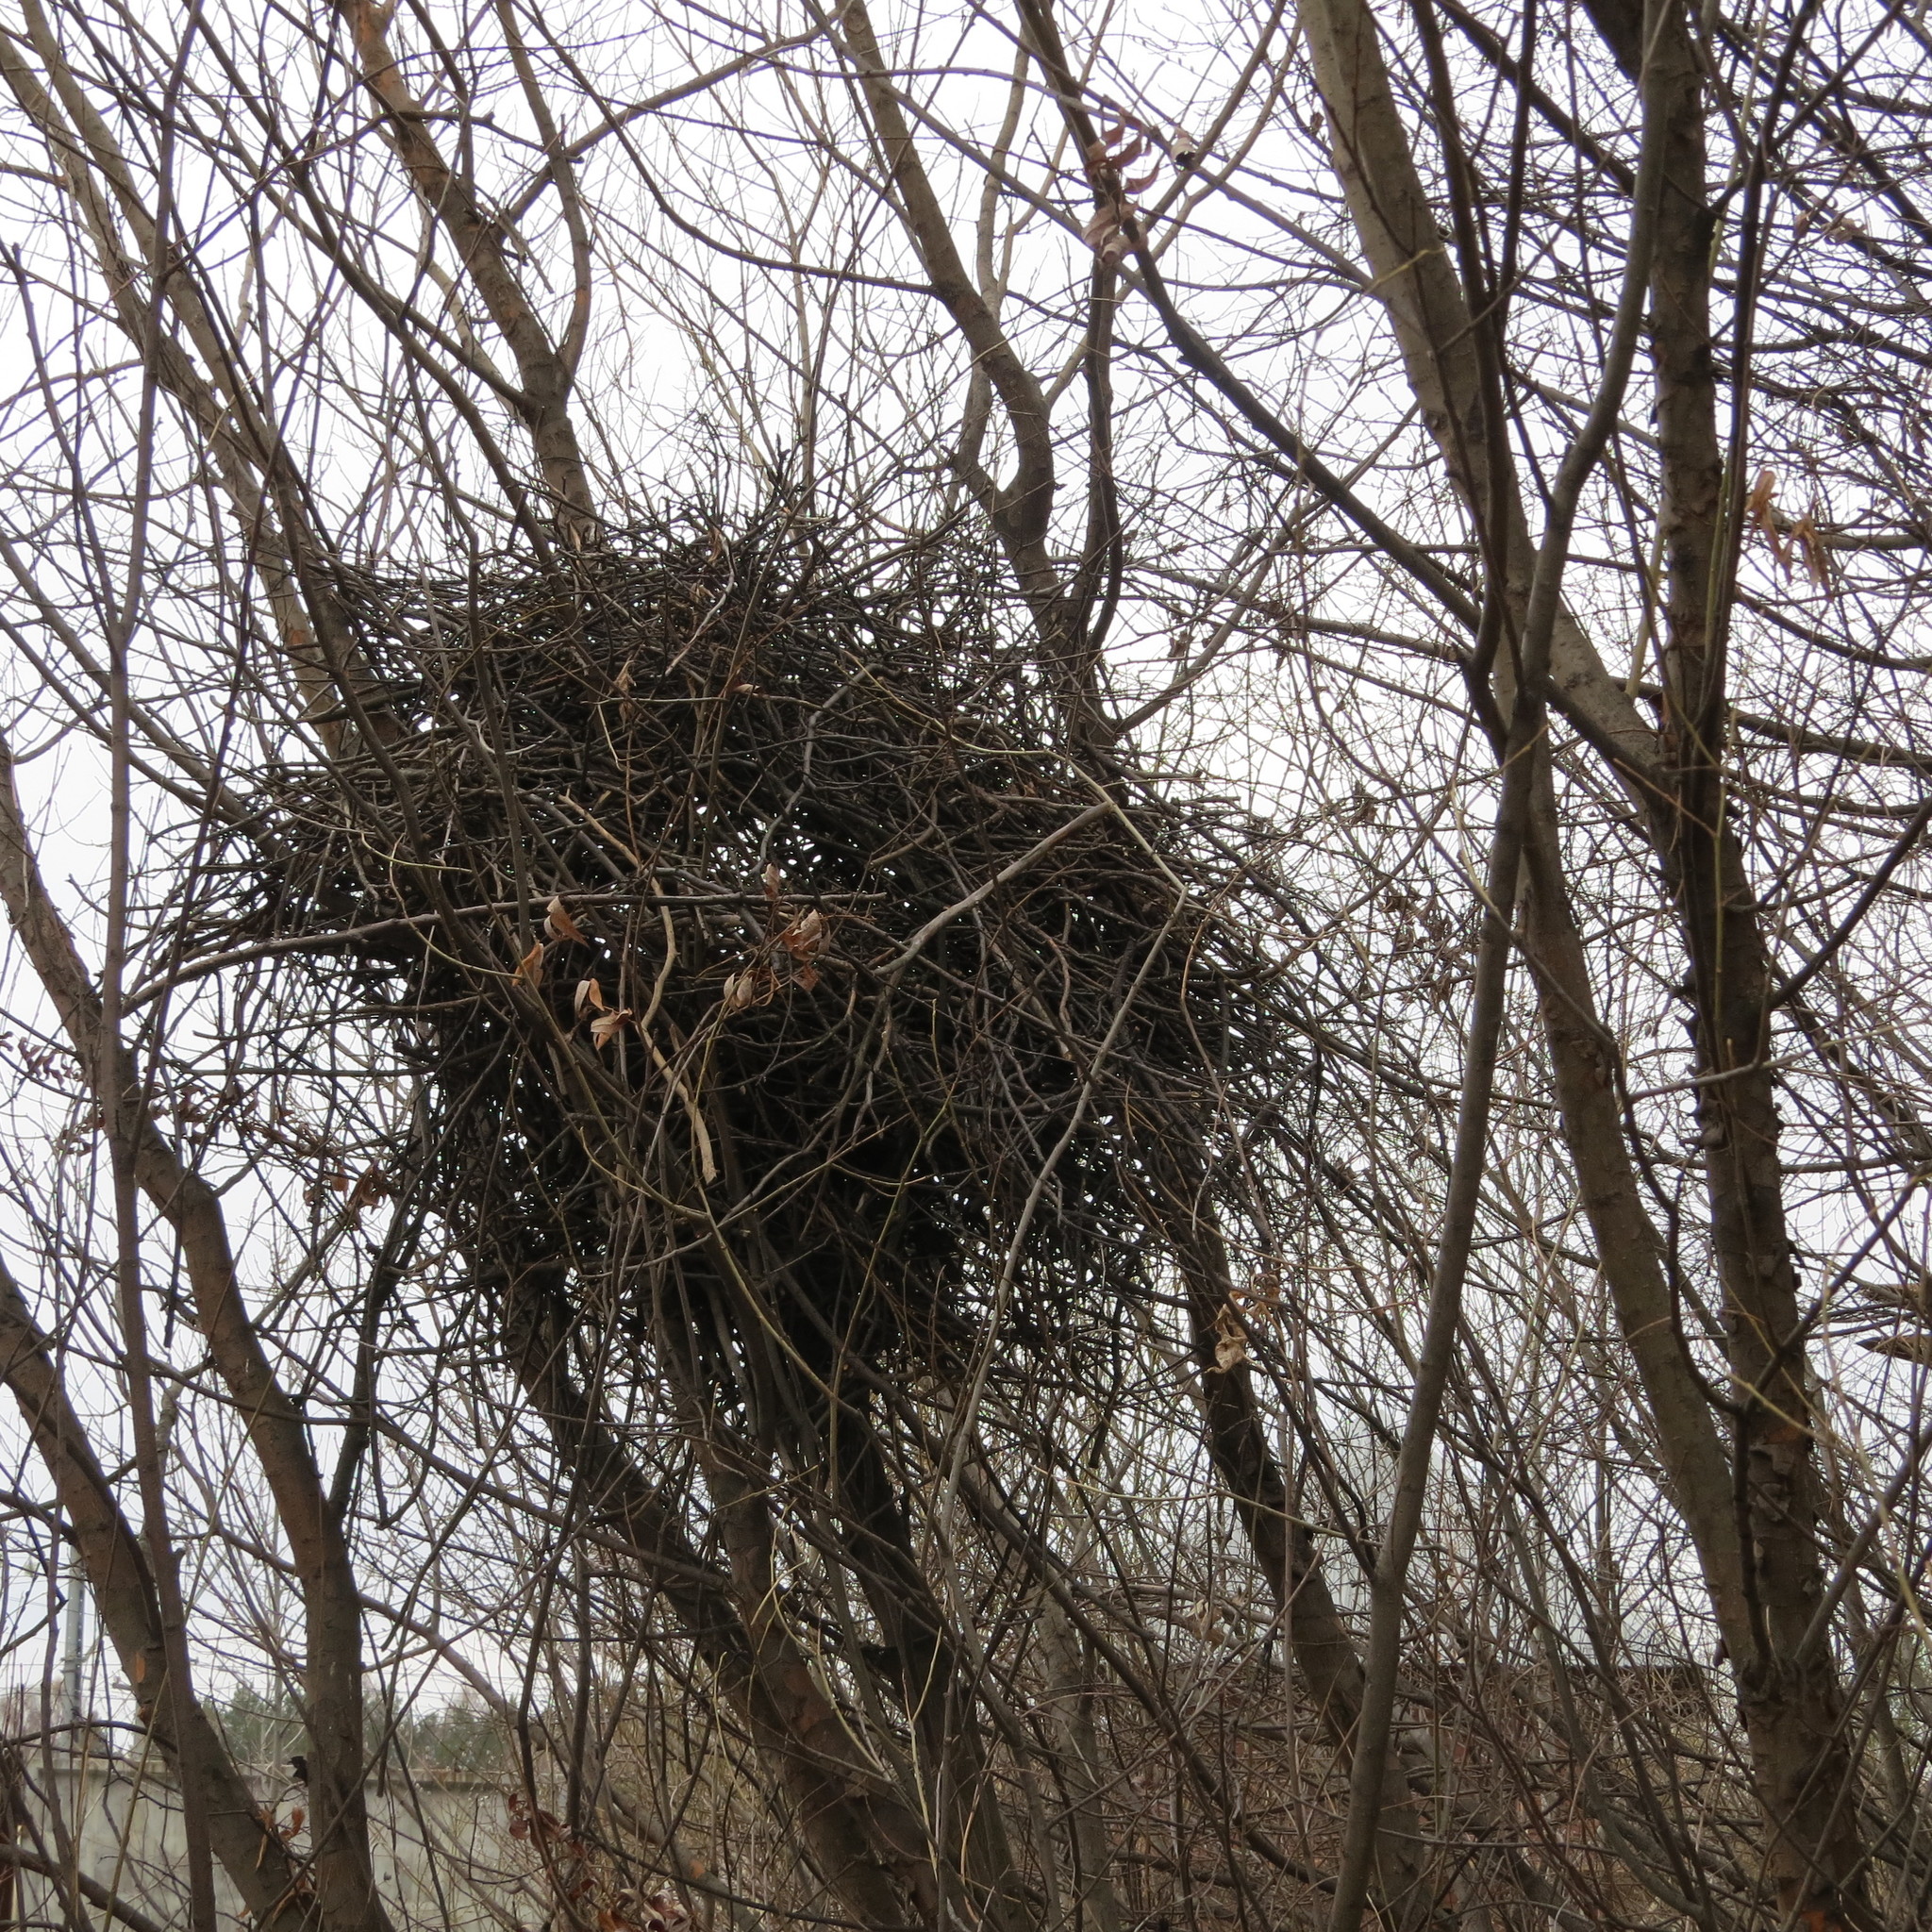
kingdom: Animalia
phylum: Chordata
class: Aves
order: Passeriformes
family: Corvidae
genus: Pica
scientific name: Pica pica
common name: Eurasian magpie
